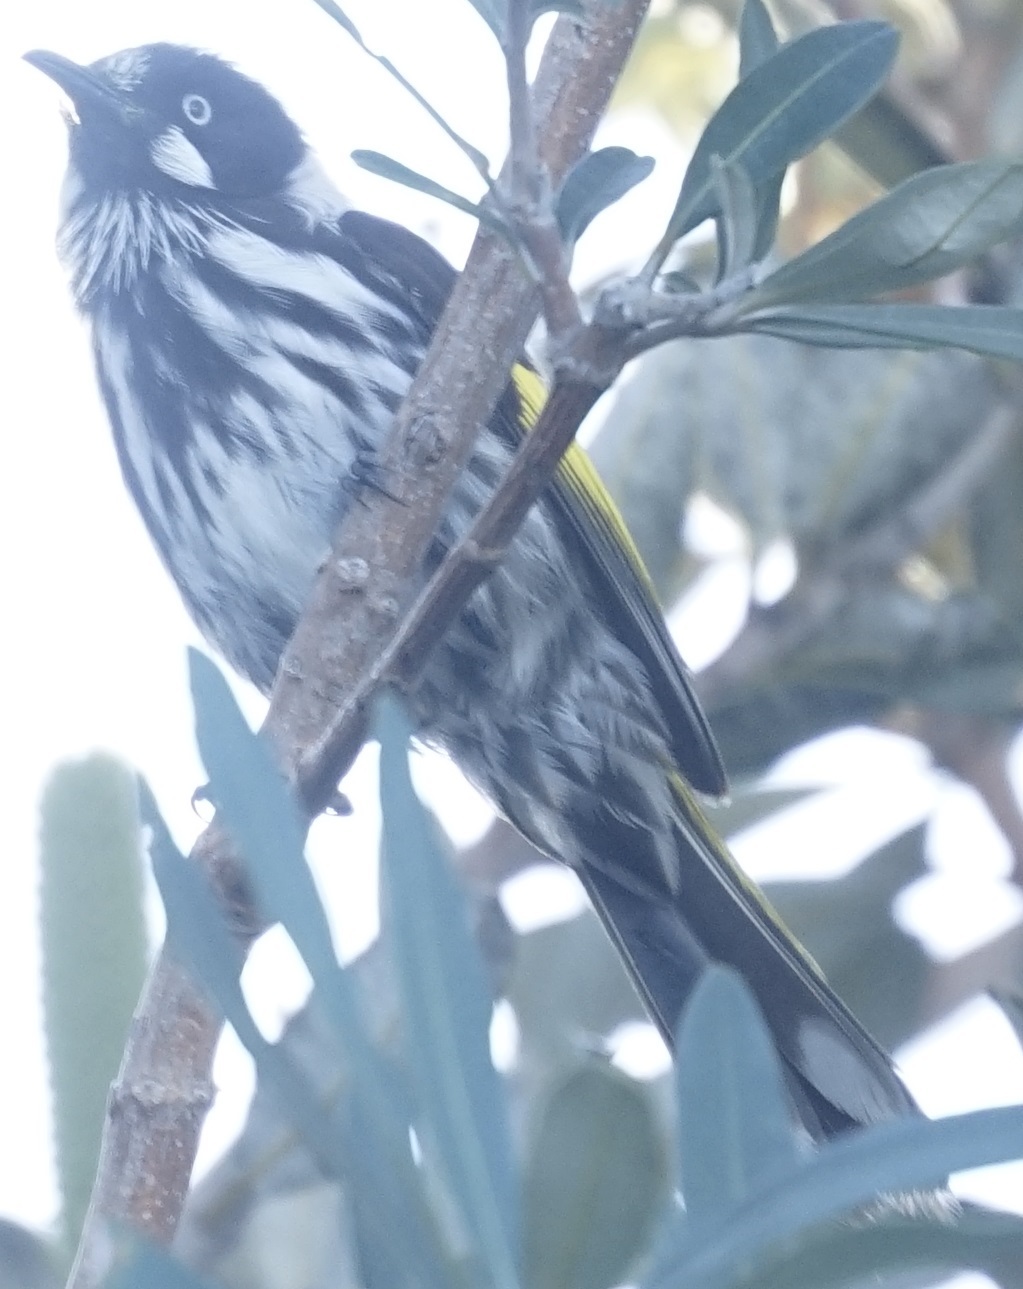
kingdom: Animalia
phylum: Chordata
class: Aves
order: Passeriformes
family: Meliphagidae
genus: Phylidonyris
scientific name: Phylidonyris novaehollandiae
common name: New holland honeyeater
